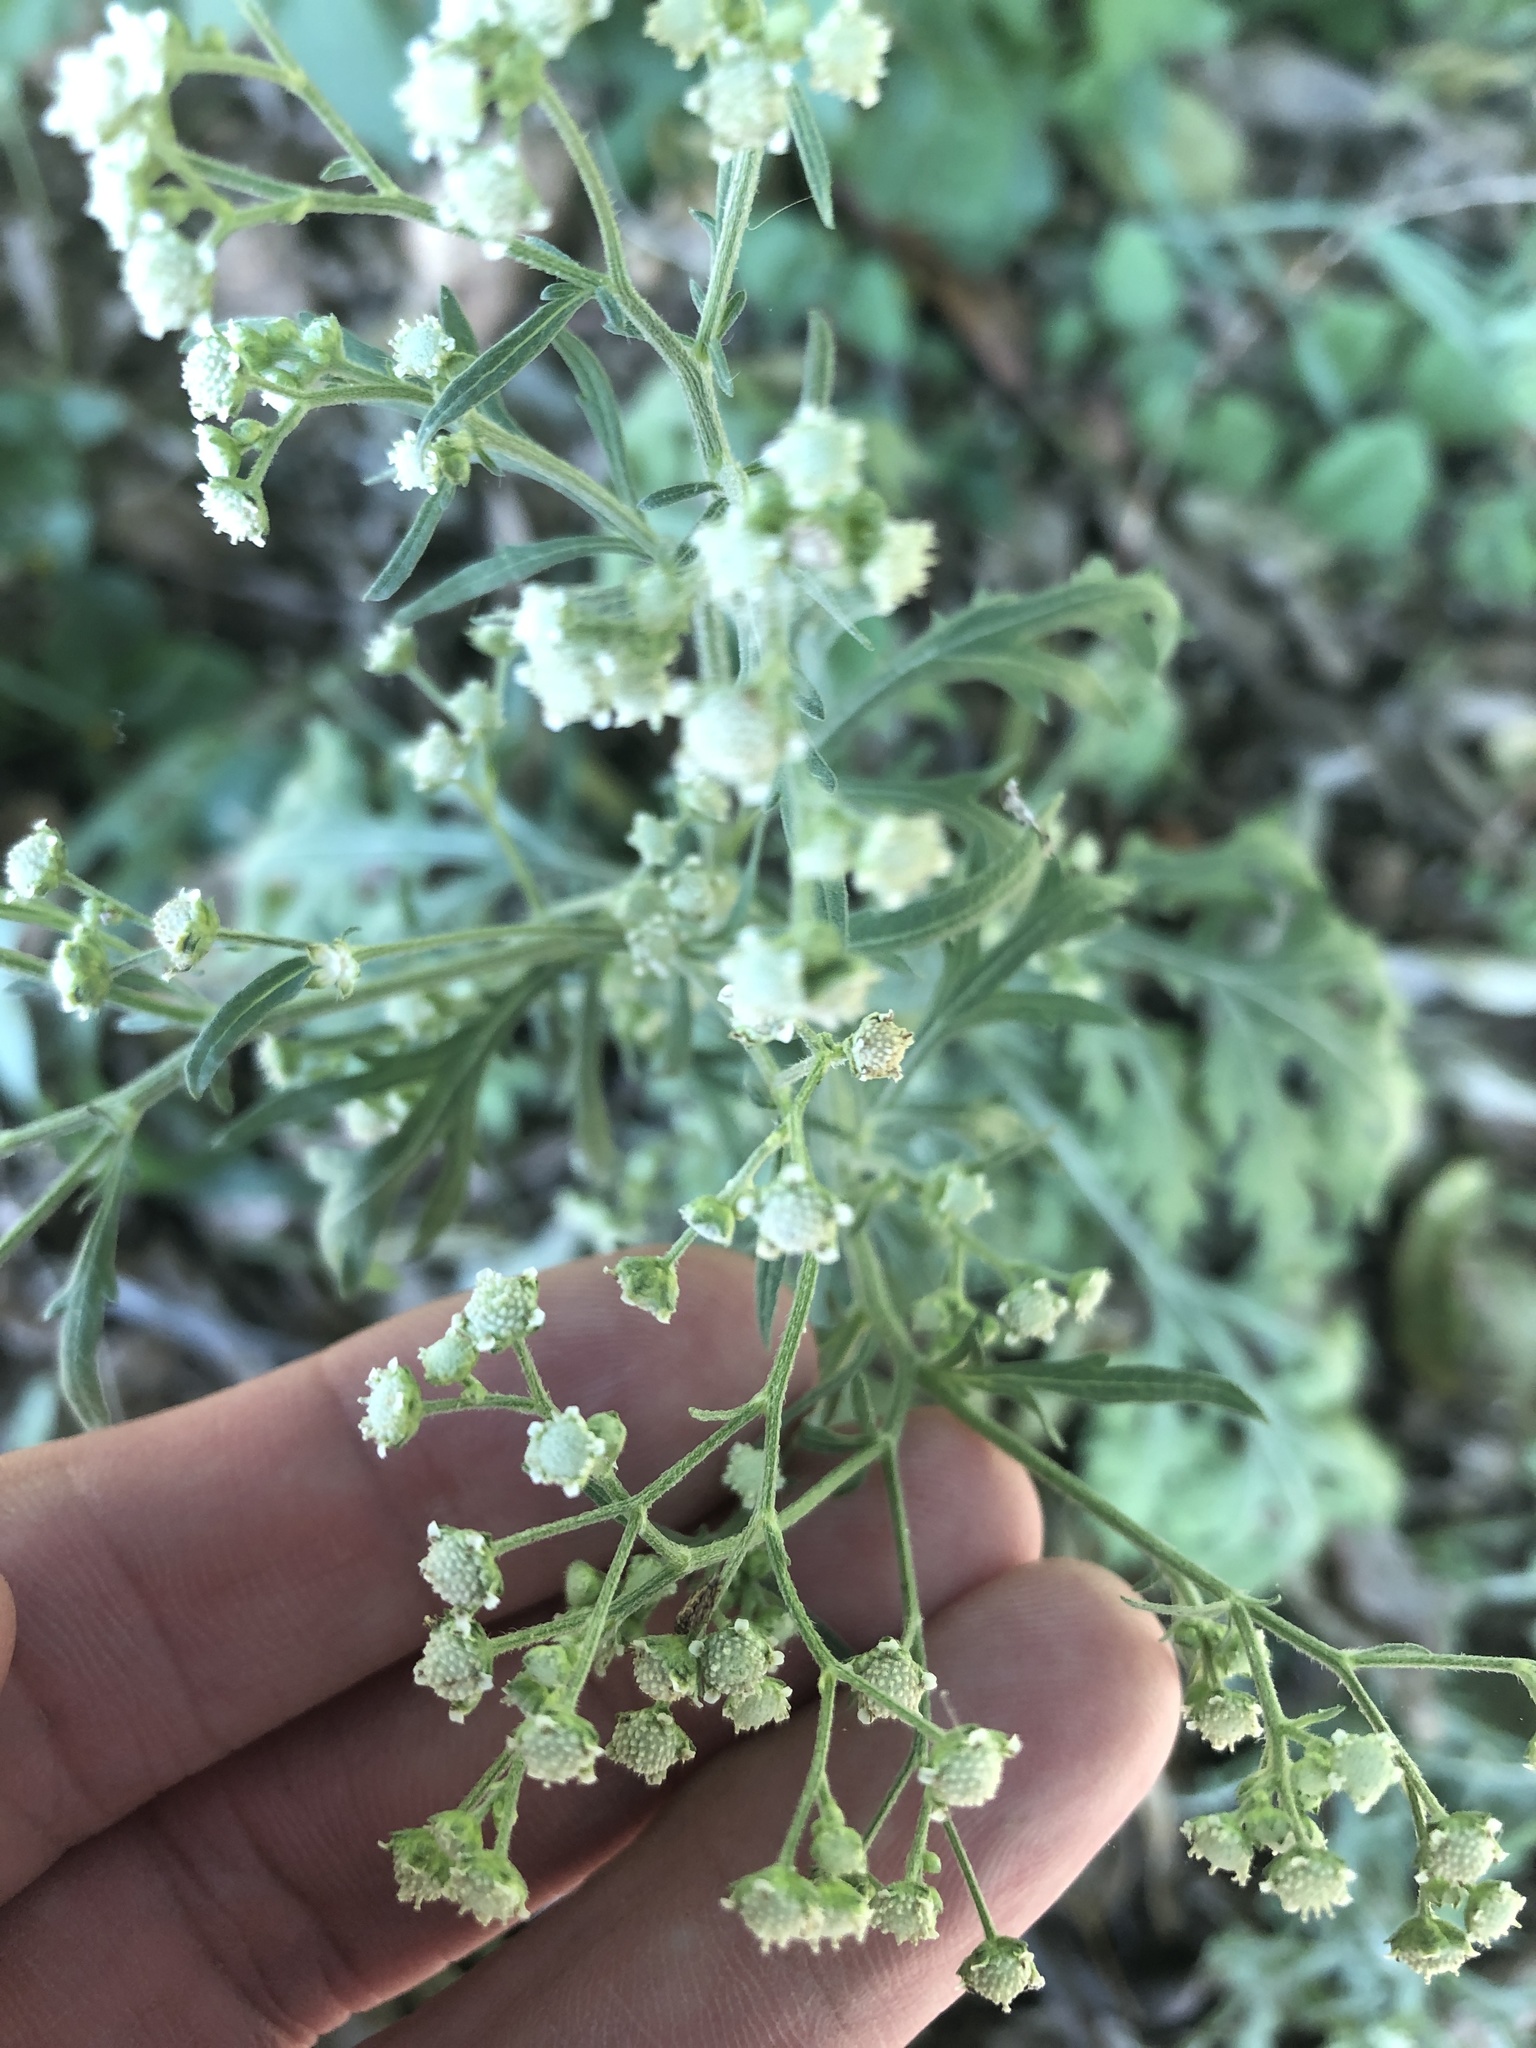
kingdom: Plantae
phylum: Tracheophyta
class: Magnoliopsida
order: Asterales
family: Asteraceae
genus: Parthenium
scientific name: Parthenium hysterophorus
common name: Santa maria feverfew
